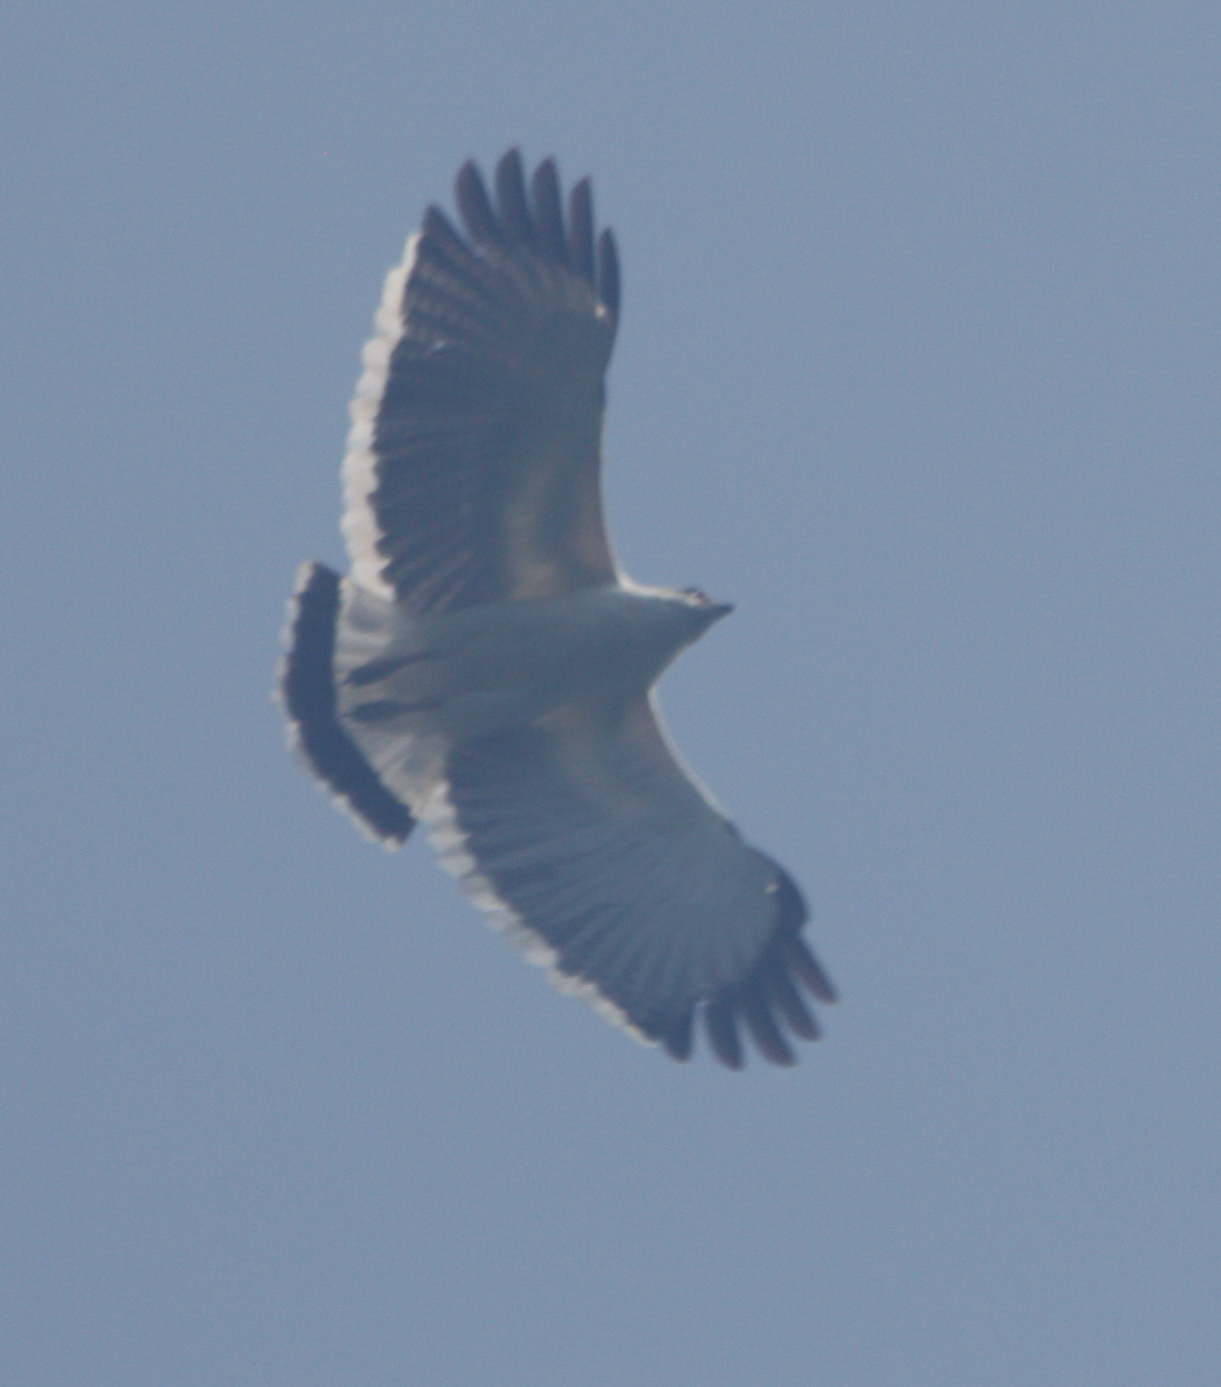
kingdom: Animalia
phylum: Chordata
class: Aves
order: Accipitriformes
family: Accipitridae
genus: Leucopternis
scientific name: Leucopternis albicollis
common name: White hawk
